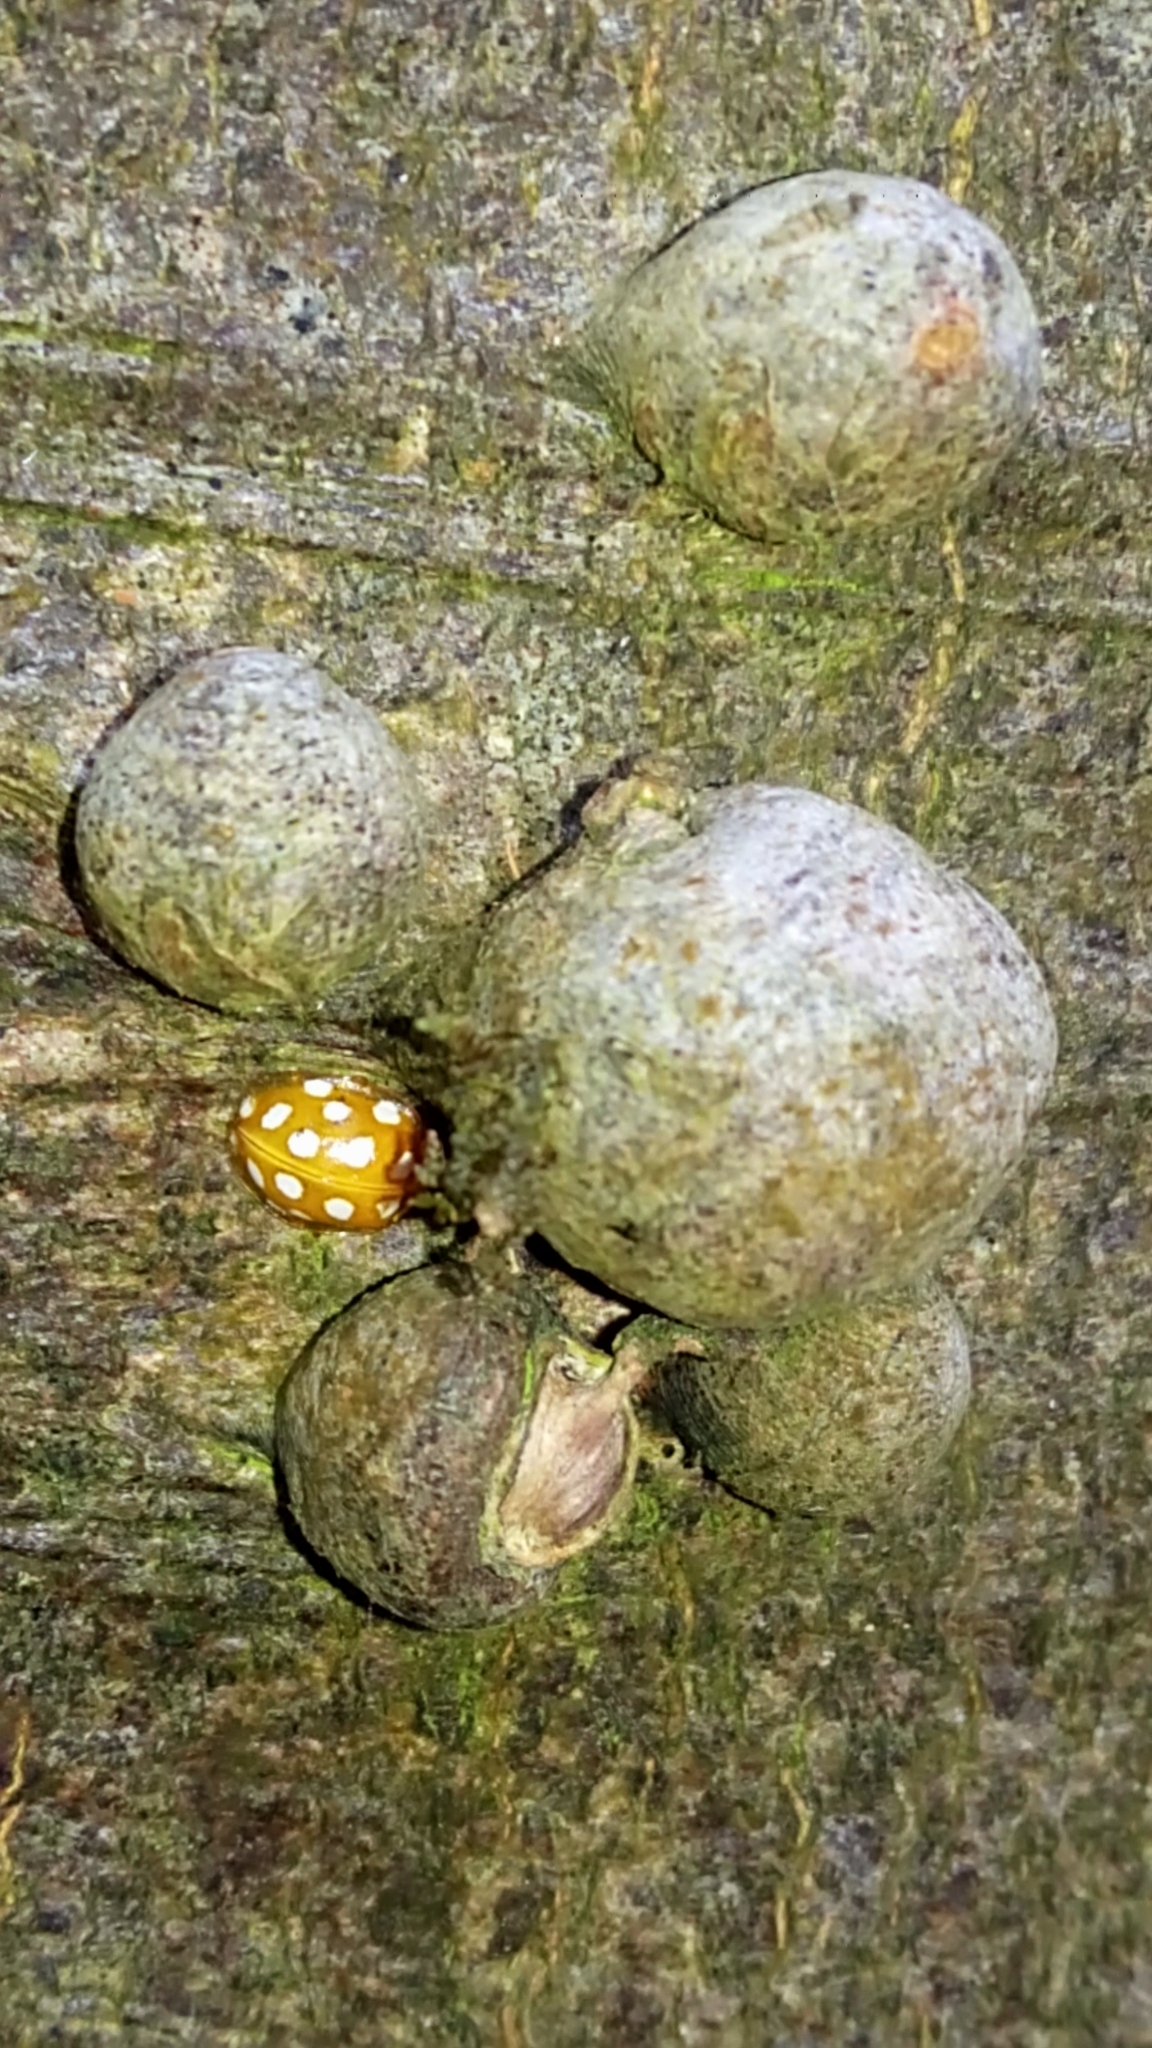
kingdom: Animalia
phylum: Arthropoda
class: Insecta
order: Coleoptera
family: Coccinellidae
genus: Halyzia
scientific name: Halyzia sedecimguttata
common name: Orange ladybird
